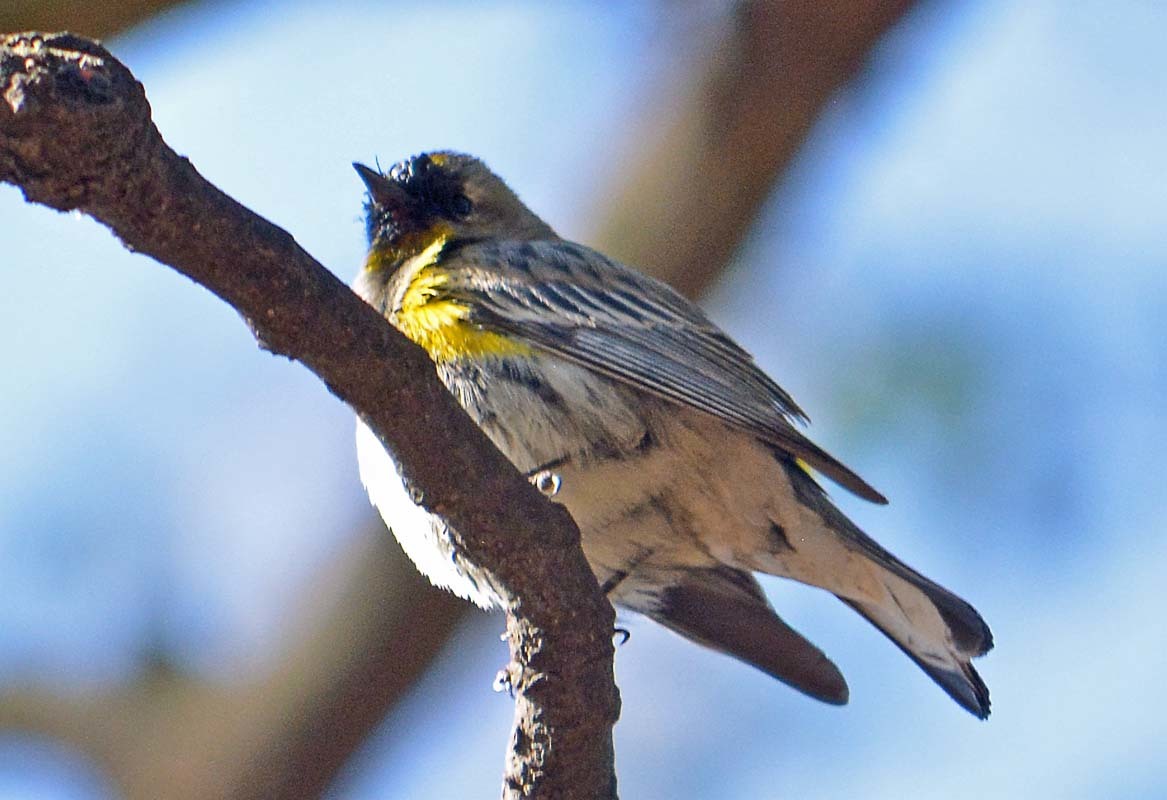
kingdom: Animalia
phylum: Chordata
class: Aves
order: Passeriformes
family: Parulidae
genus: Setophaga
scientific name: Setophaga coronata
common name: Myrtle warbler
